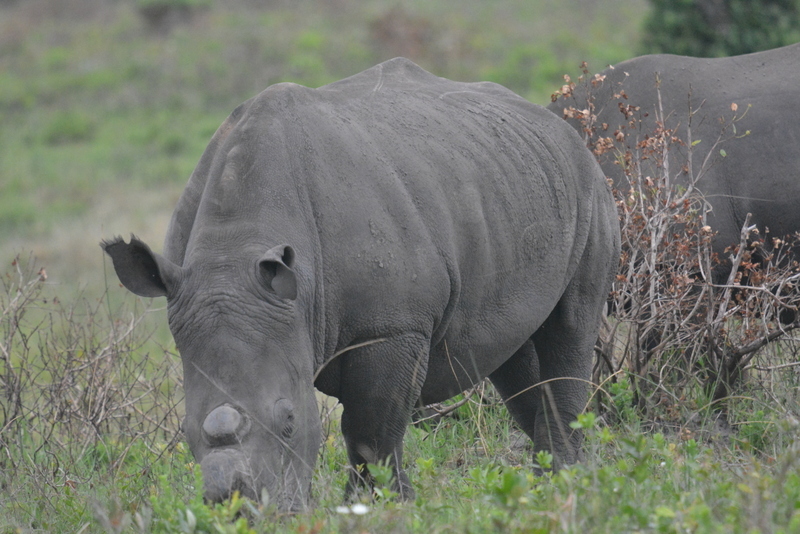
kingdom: Animalia
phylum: Chordata
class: Mammalia
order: Perissodactyla
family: Rhinocerotidae
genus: Ceratotherium
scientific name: Ceratotherium simum
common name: White rhinoceros
